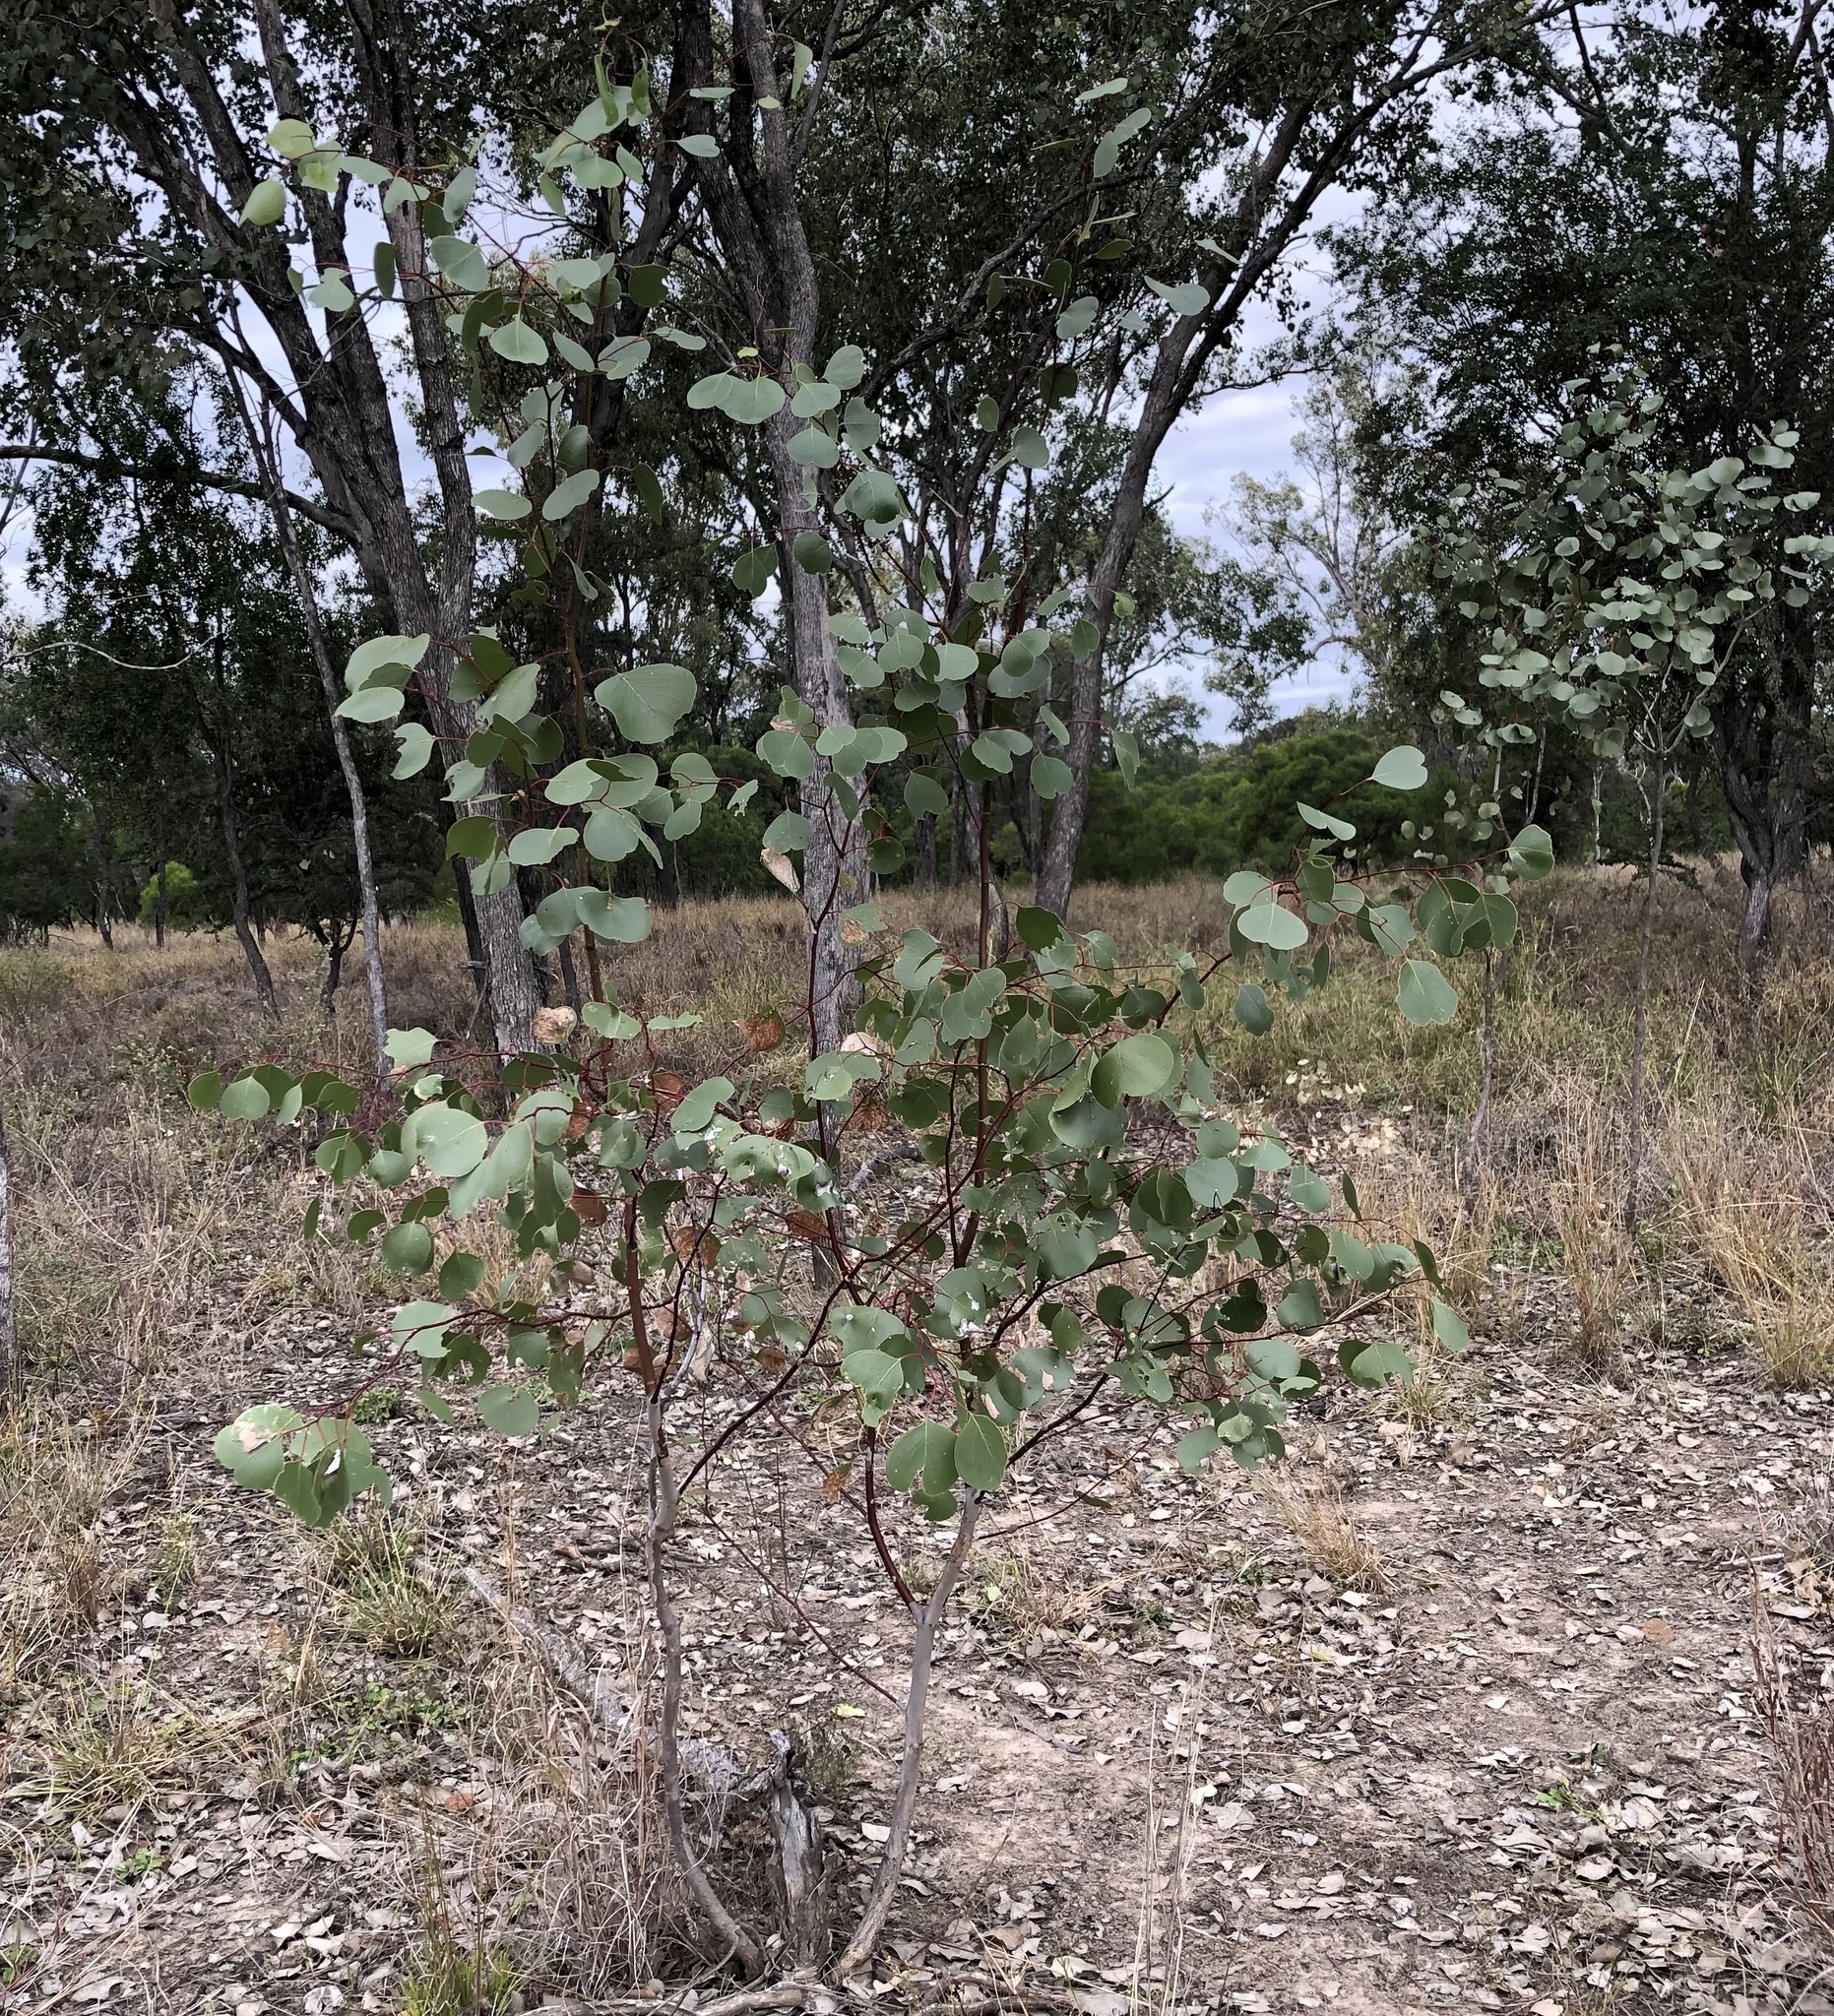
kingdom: Plantae
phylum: Tracheophyta
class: Magnoliopsida
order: Myrtales
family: Myrtaceae
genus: Eucalyptus
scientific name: Eucalyptus populnea
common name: Bimble box
